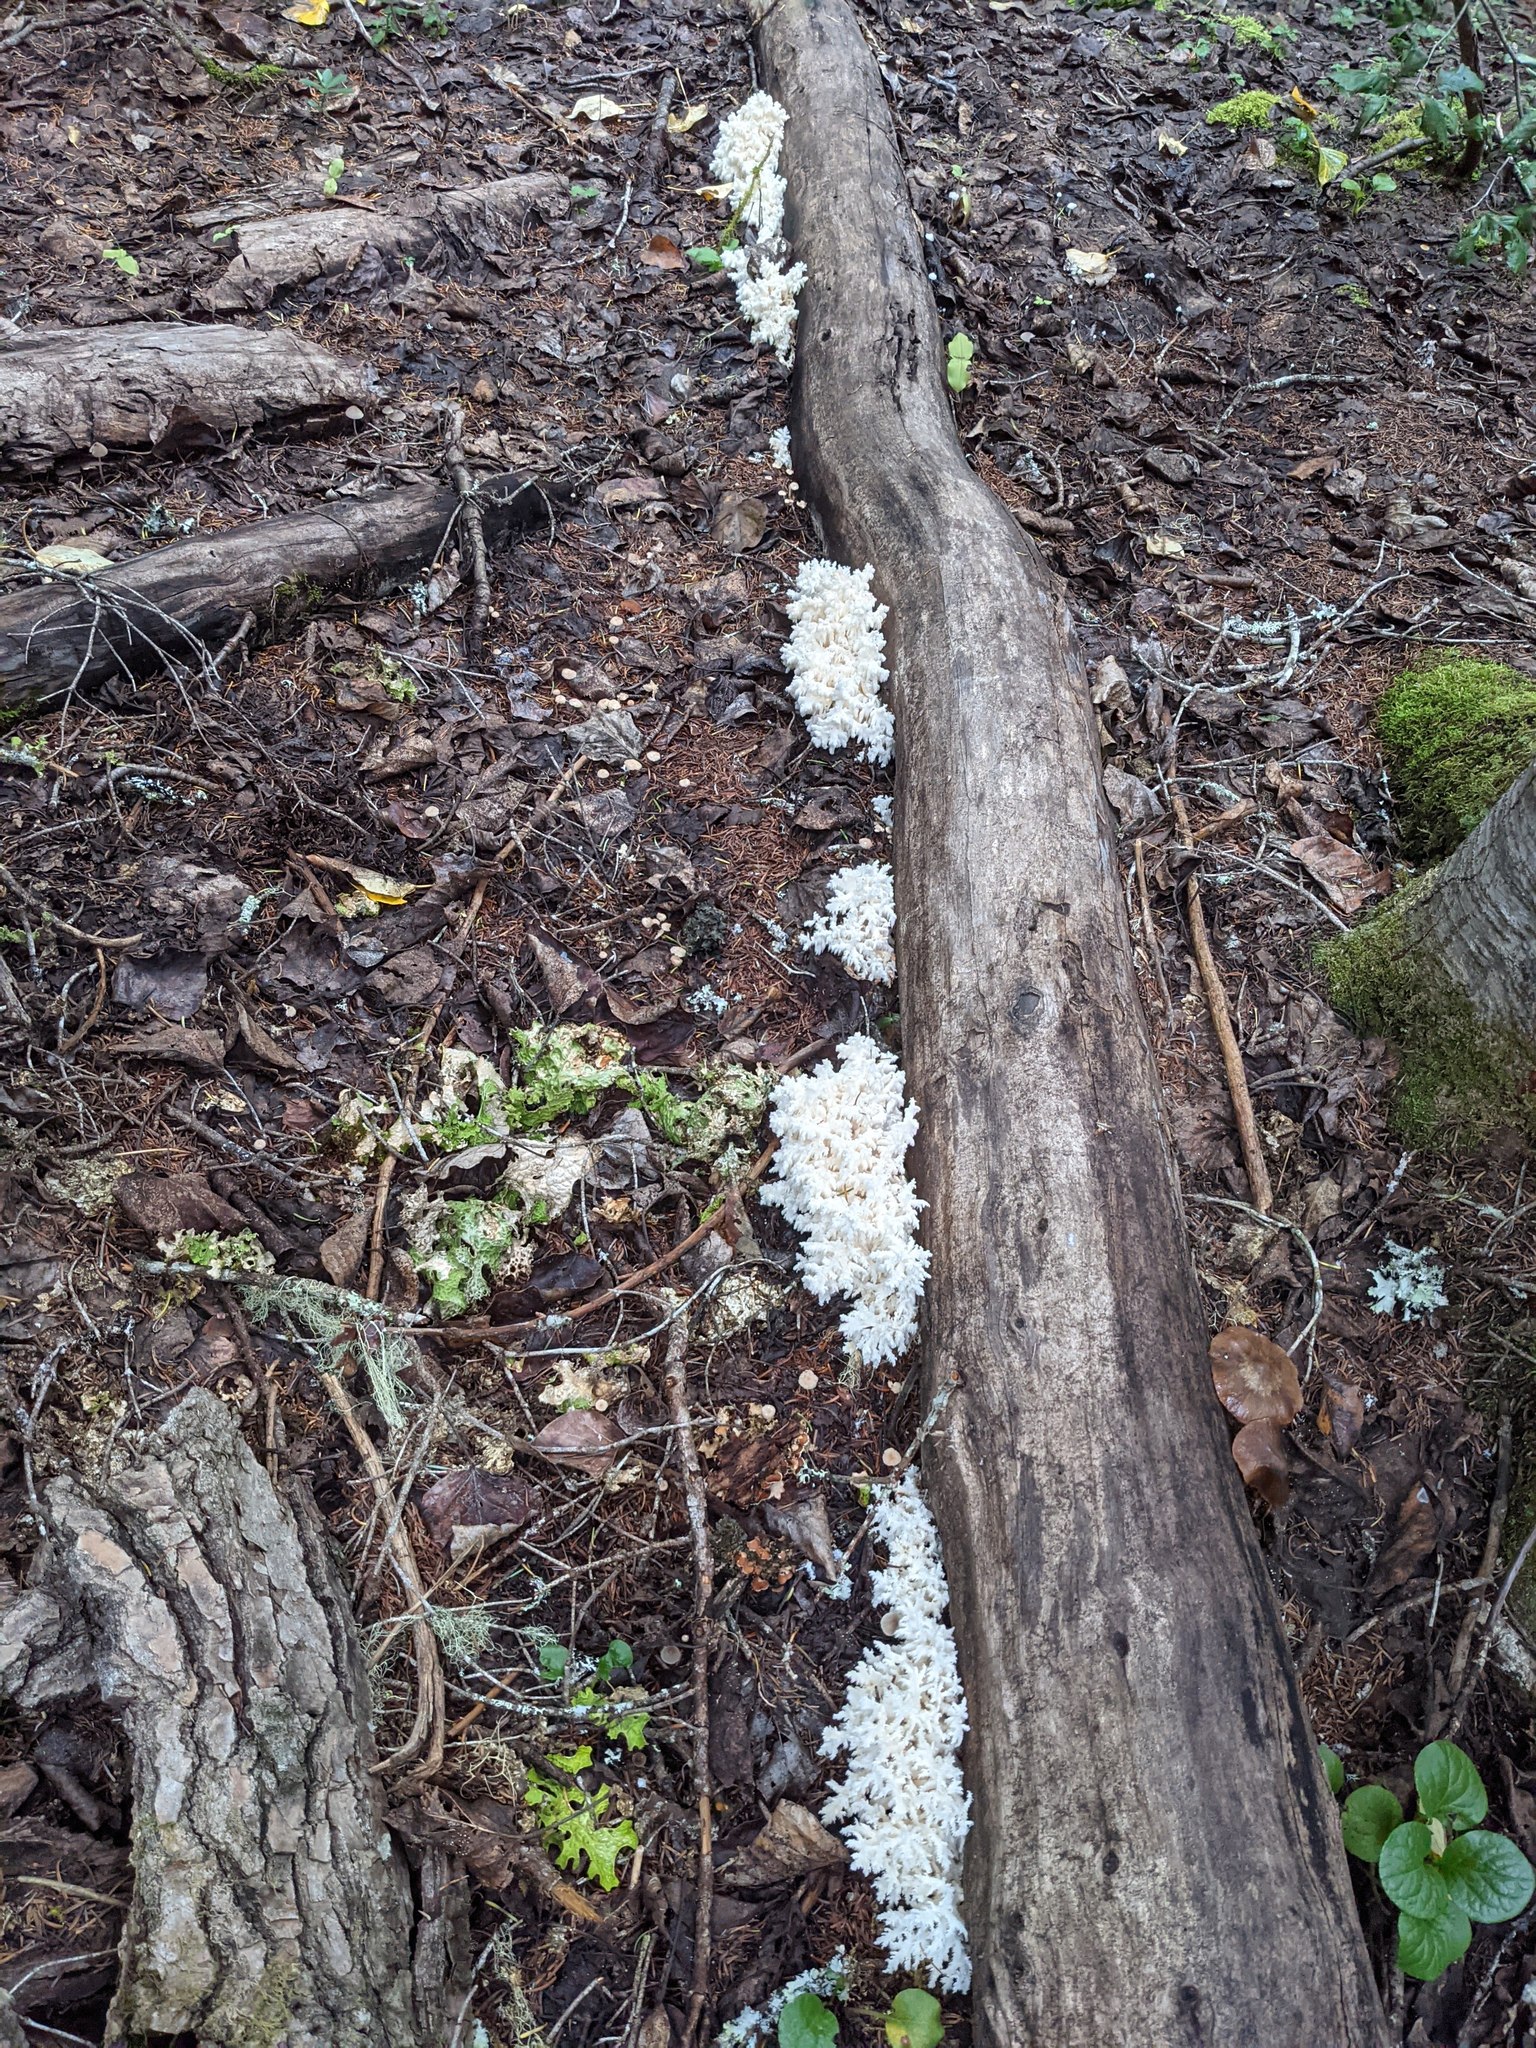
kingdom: Fungi
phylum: Basidiomycota
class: Agaricomycetes
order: Russulales
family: Hericiaceae
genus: Hericium
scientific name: Hericium coralloides
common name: Coral tooth
